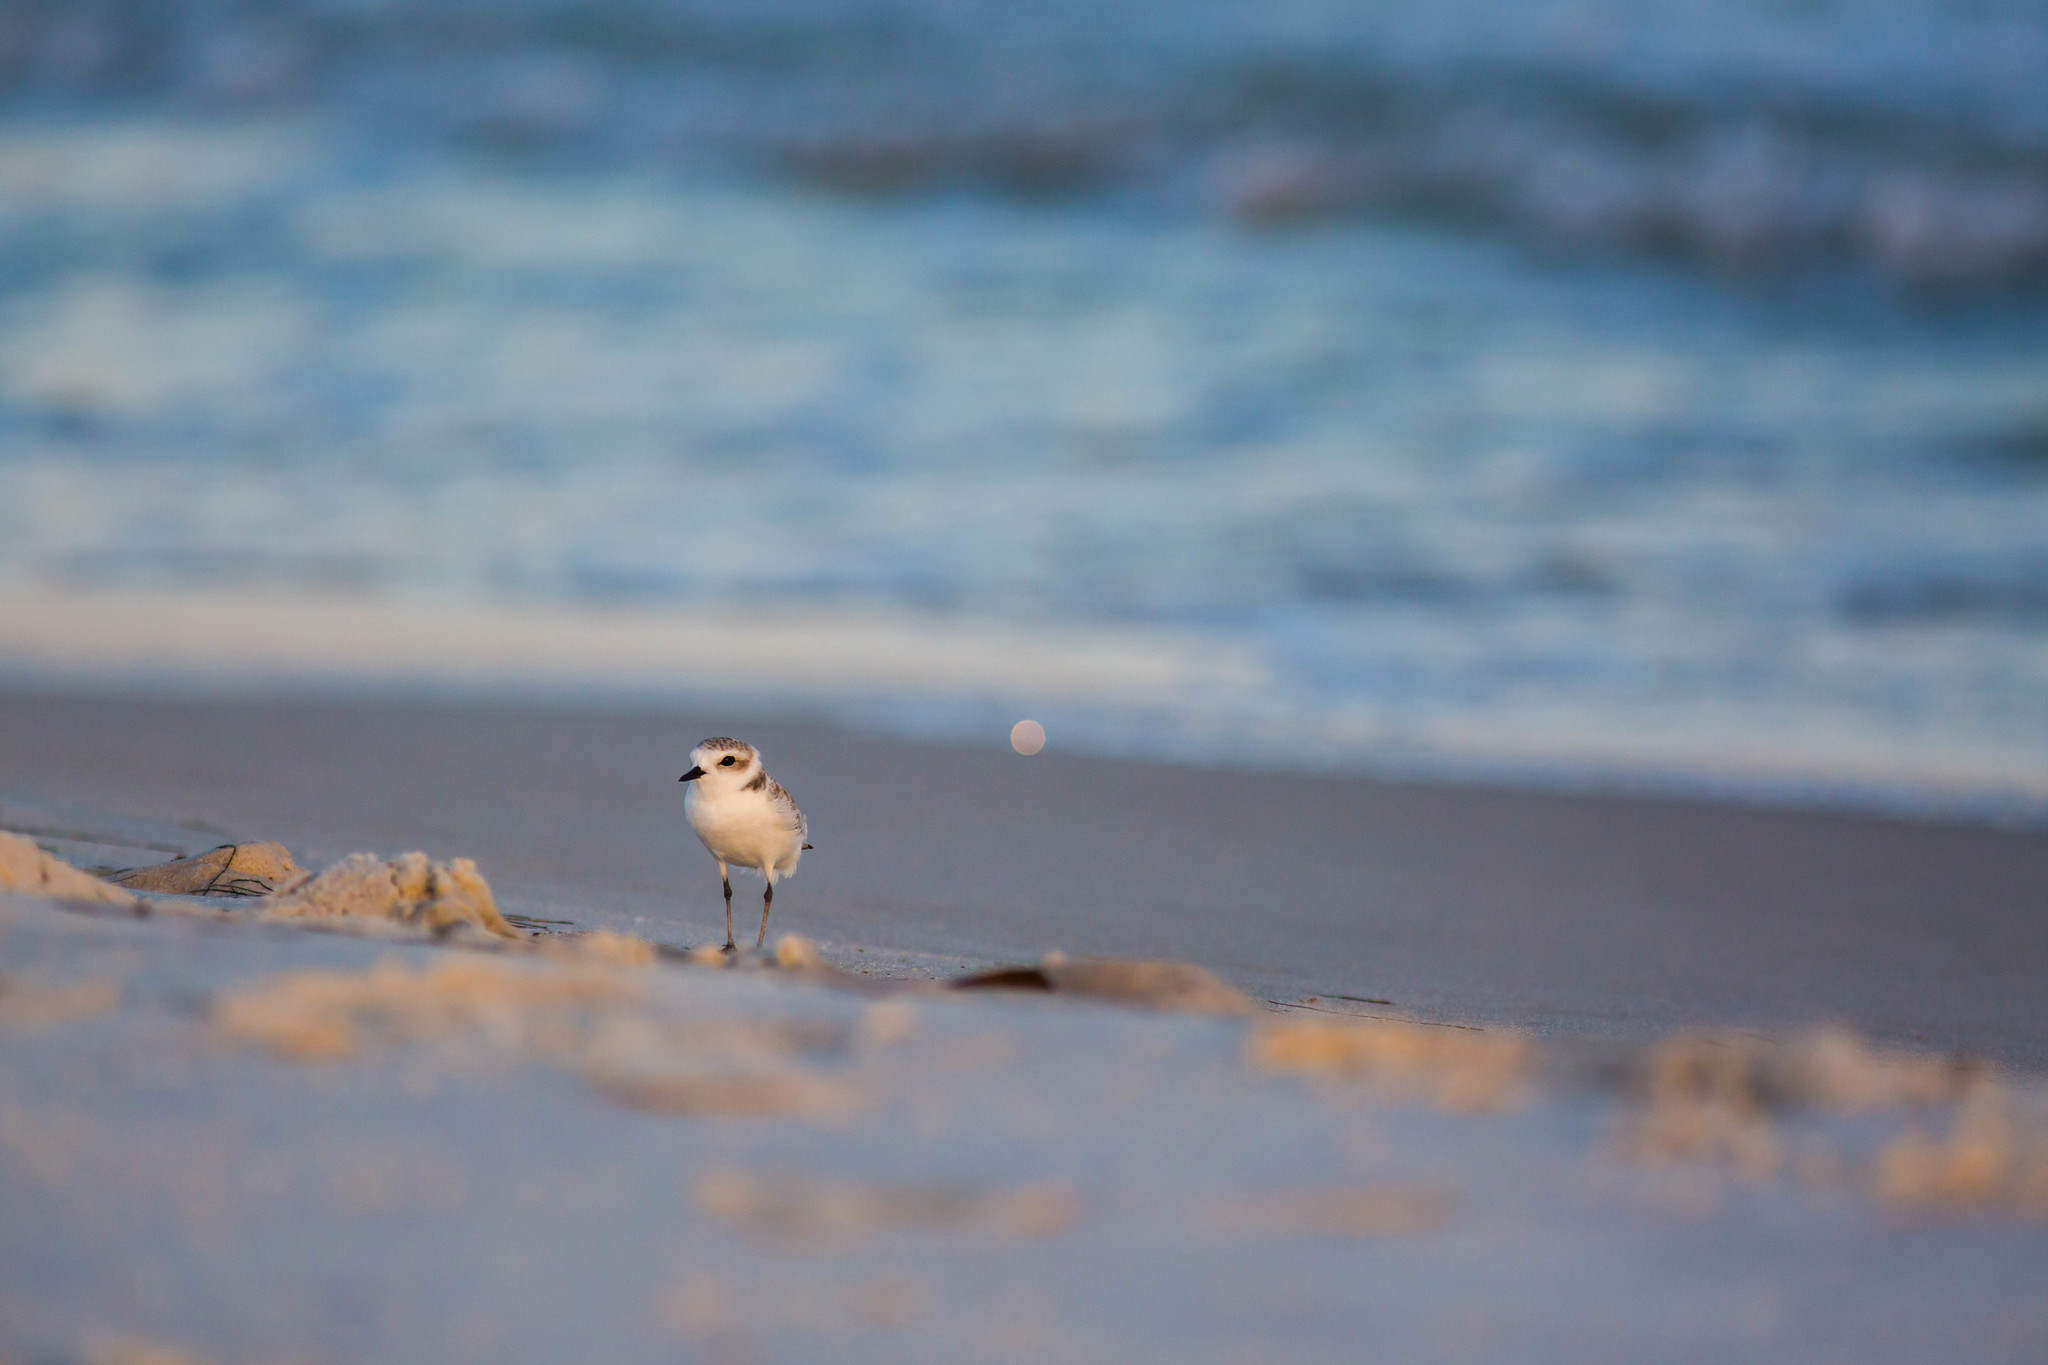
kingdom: Animalia
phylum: Chordata
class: Aves
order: Charadriiformes
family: Charadriidae
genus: Anarhynchus
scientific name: Anarhynchus
